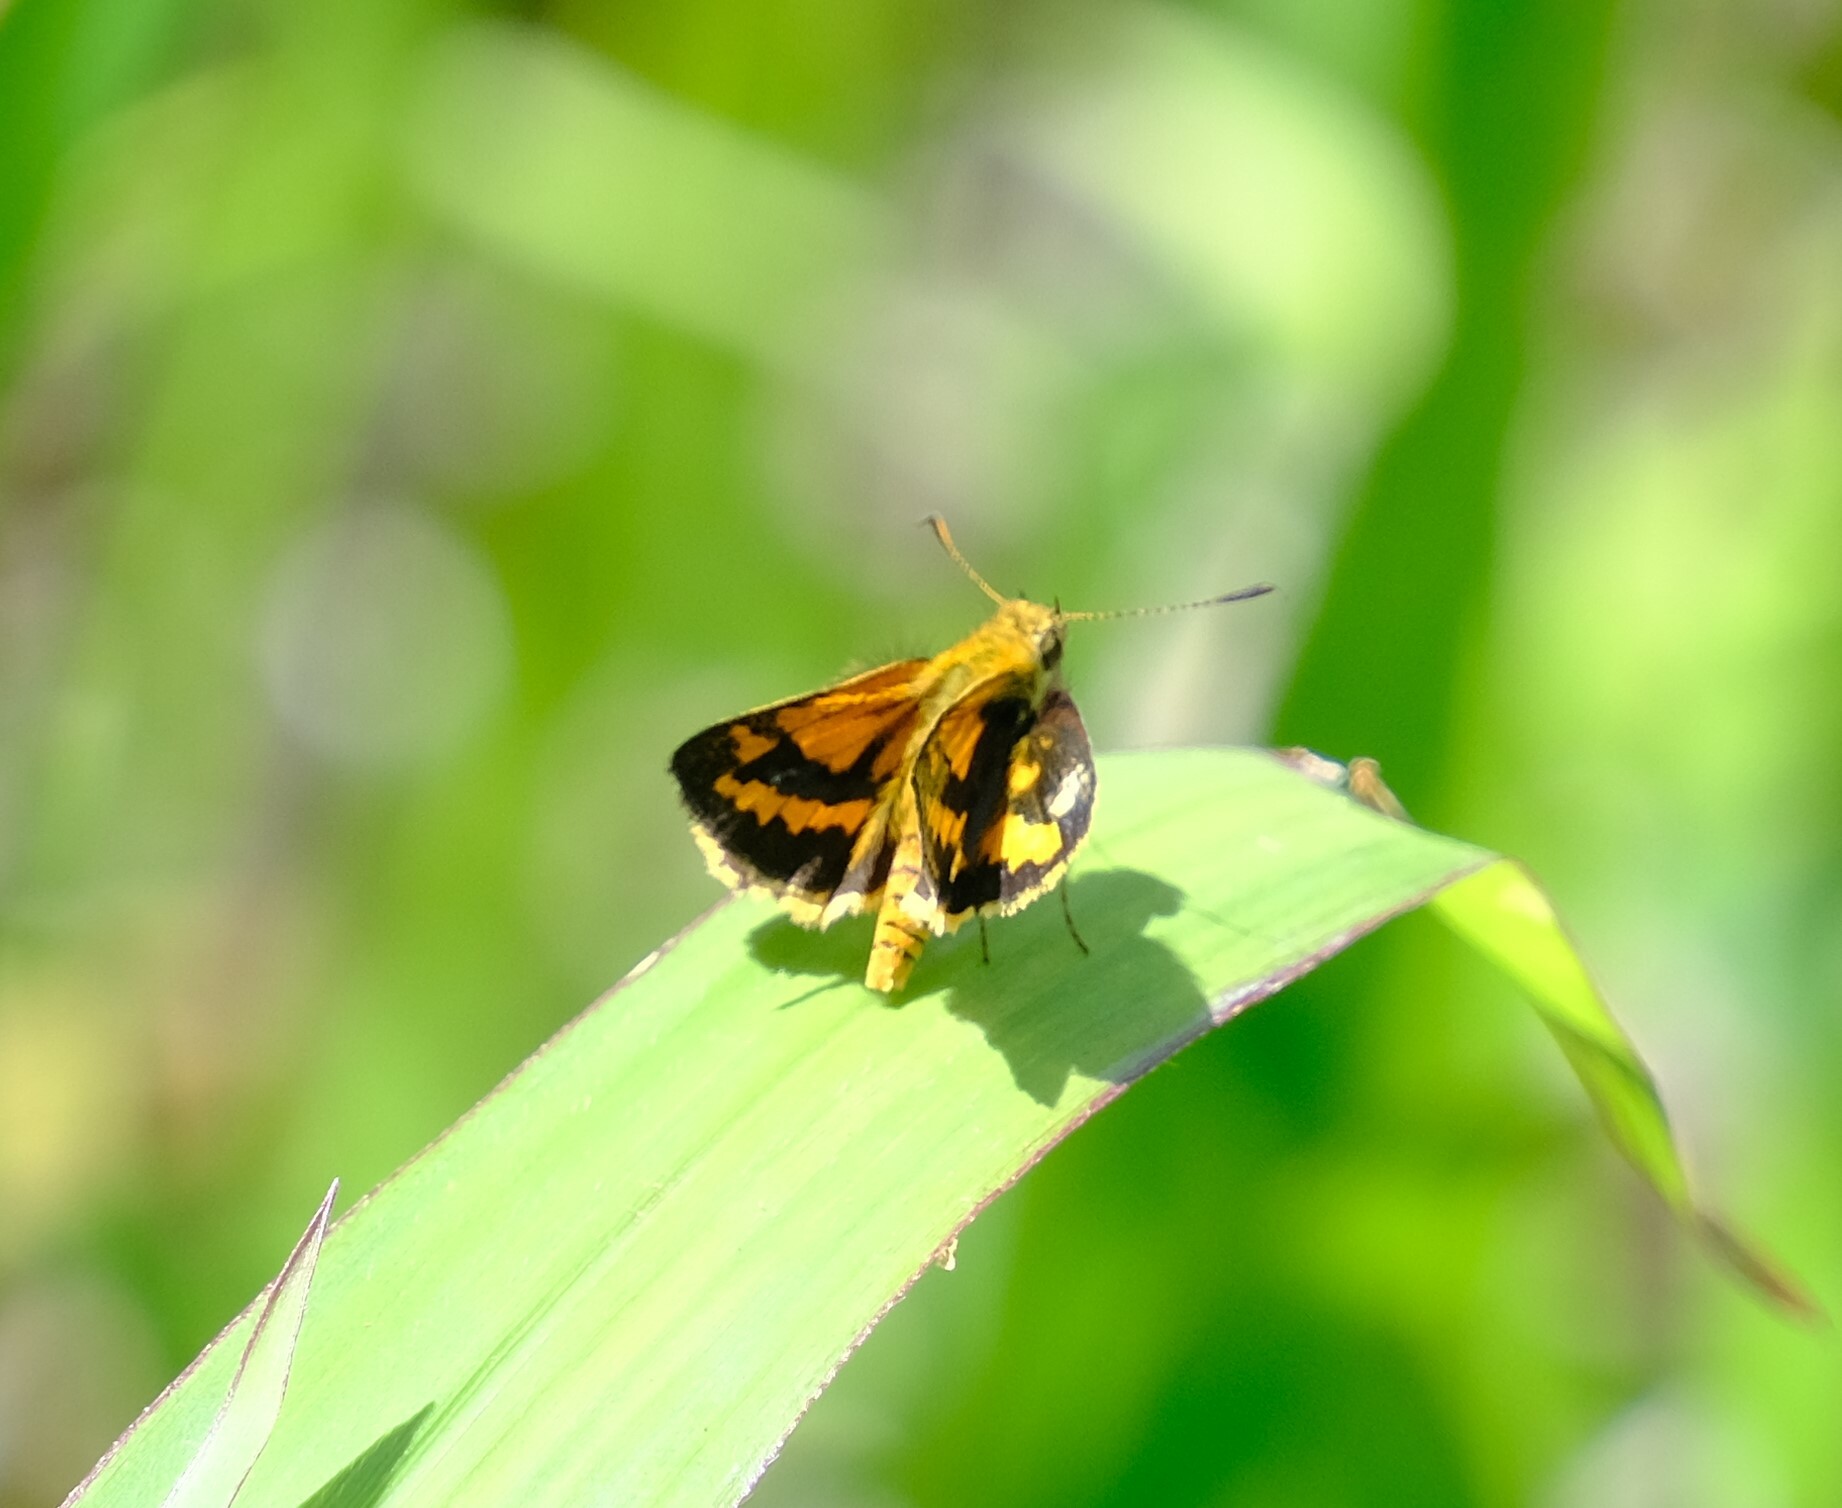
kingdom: Animalia
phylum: Arthropoda
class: Insecta
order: Lepidoptera
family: Hesperiidae
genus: Suniana
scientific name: Suniana sunias
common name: Wide-brand grass-dart
